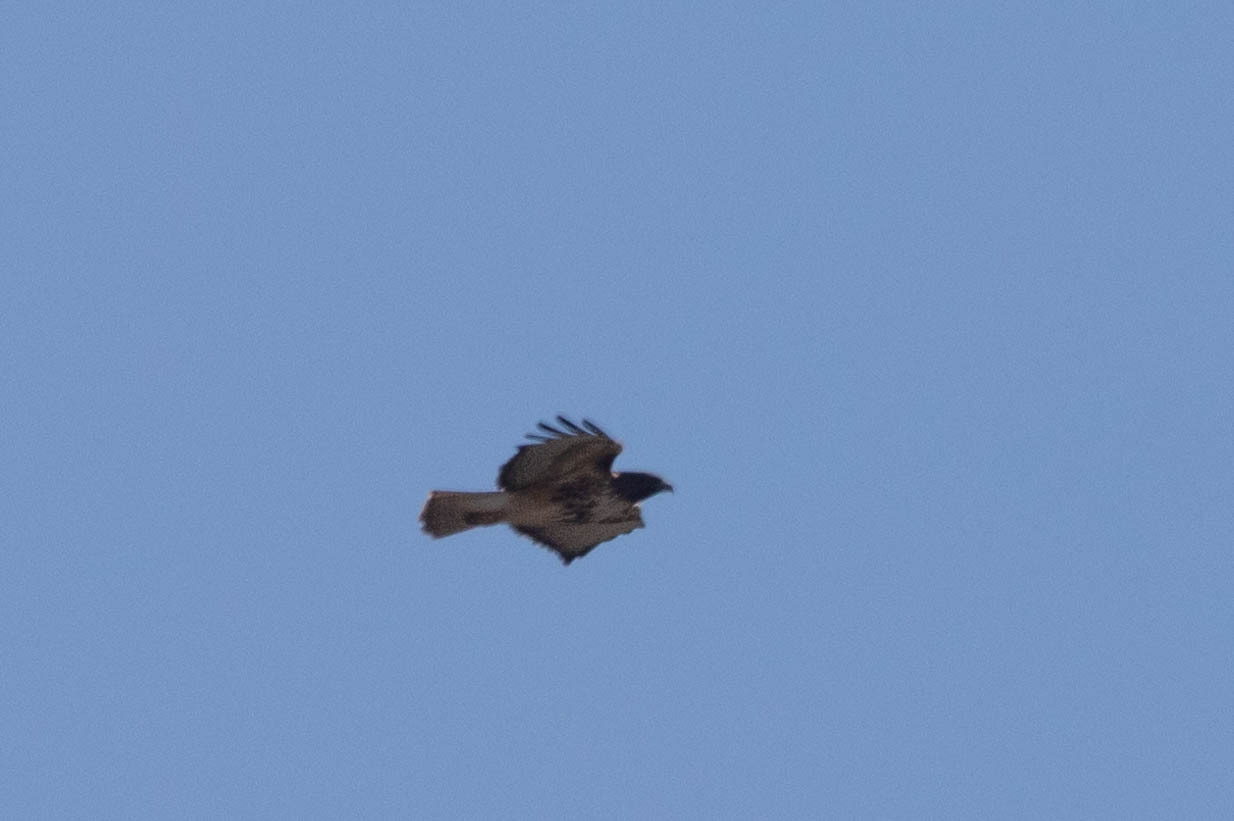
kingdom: Animalia
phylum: Chordata
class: Aves
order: Accipitriformes
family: Accipitridae
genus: Buteo
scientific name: Buteo jamaicensis
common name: Red-tailed hawk
